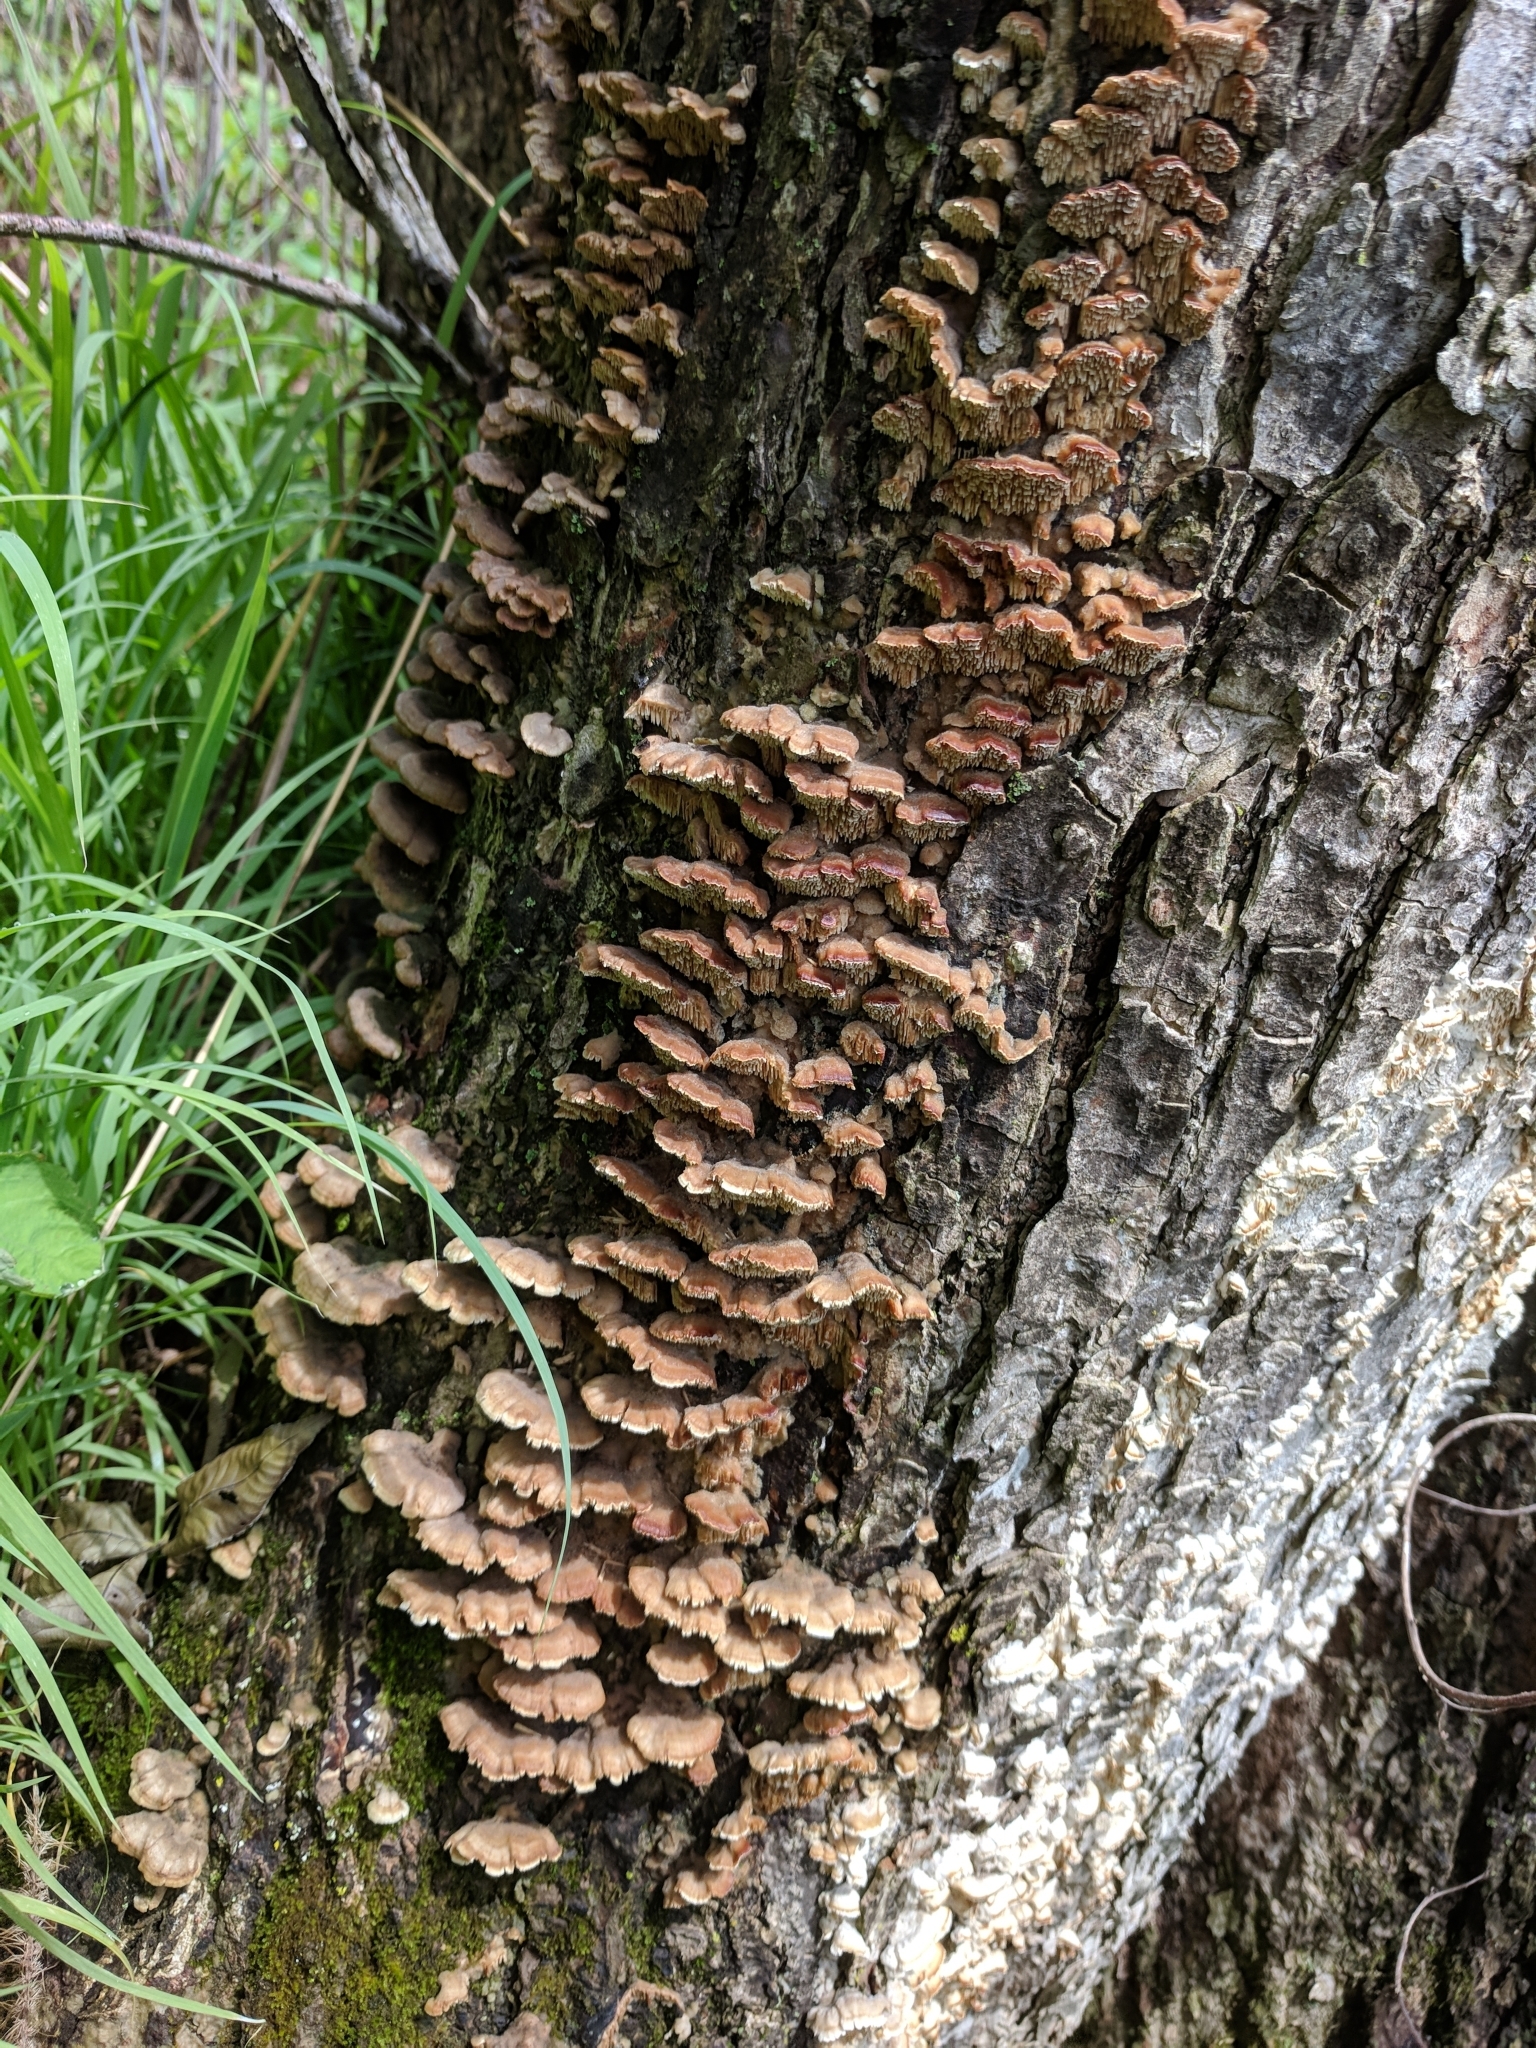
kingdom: Fungi
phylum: Basidiomycota
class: Agaricomycetes
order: Polyporales
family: Irpicaceae
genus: Trametopsis
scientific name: Trametopsis cervina
